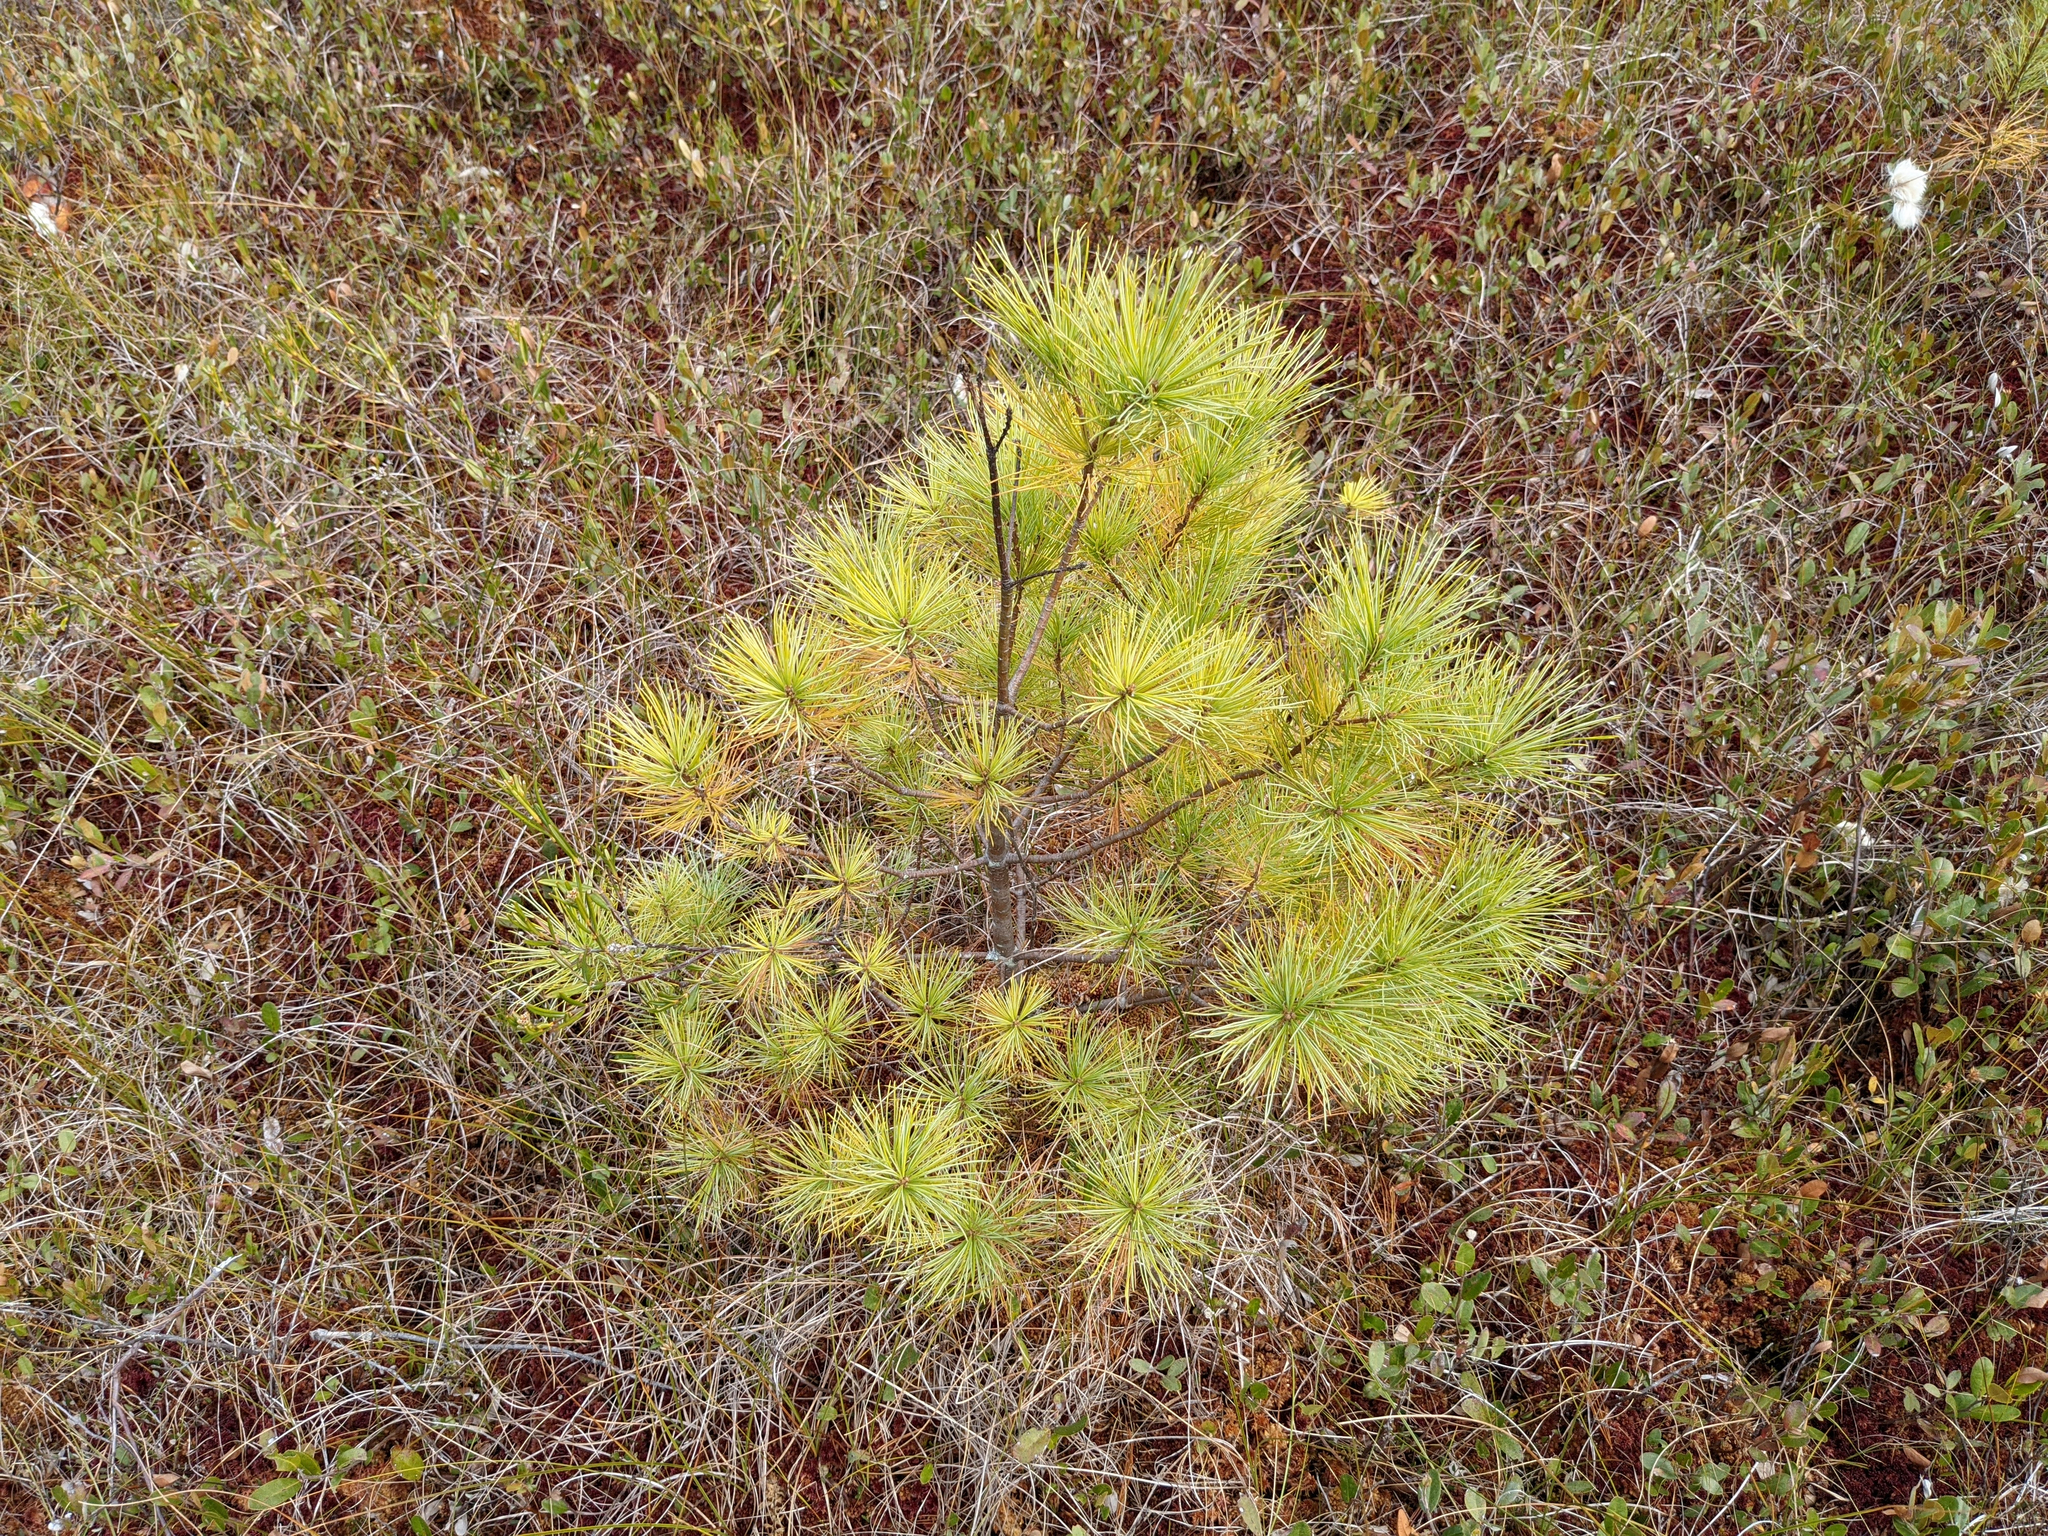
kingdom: Plantae
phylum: Tracheophyta
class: Pinopsida
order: Pinales
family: Pinaceae
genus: Pinus
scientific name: Pinus strobus
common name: Weymouth pine
